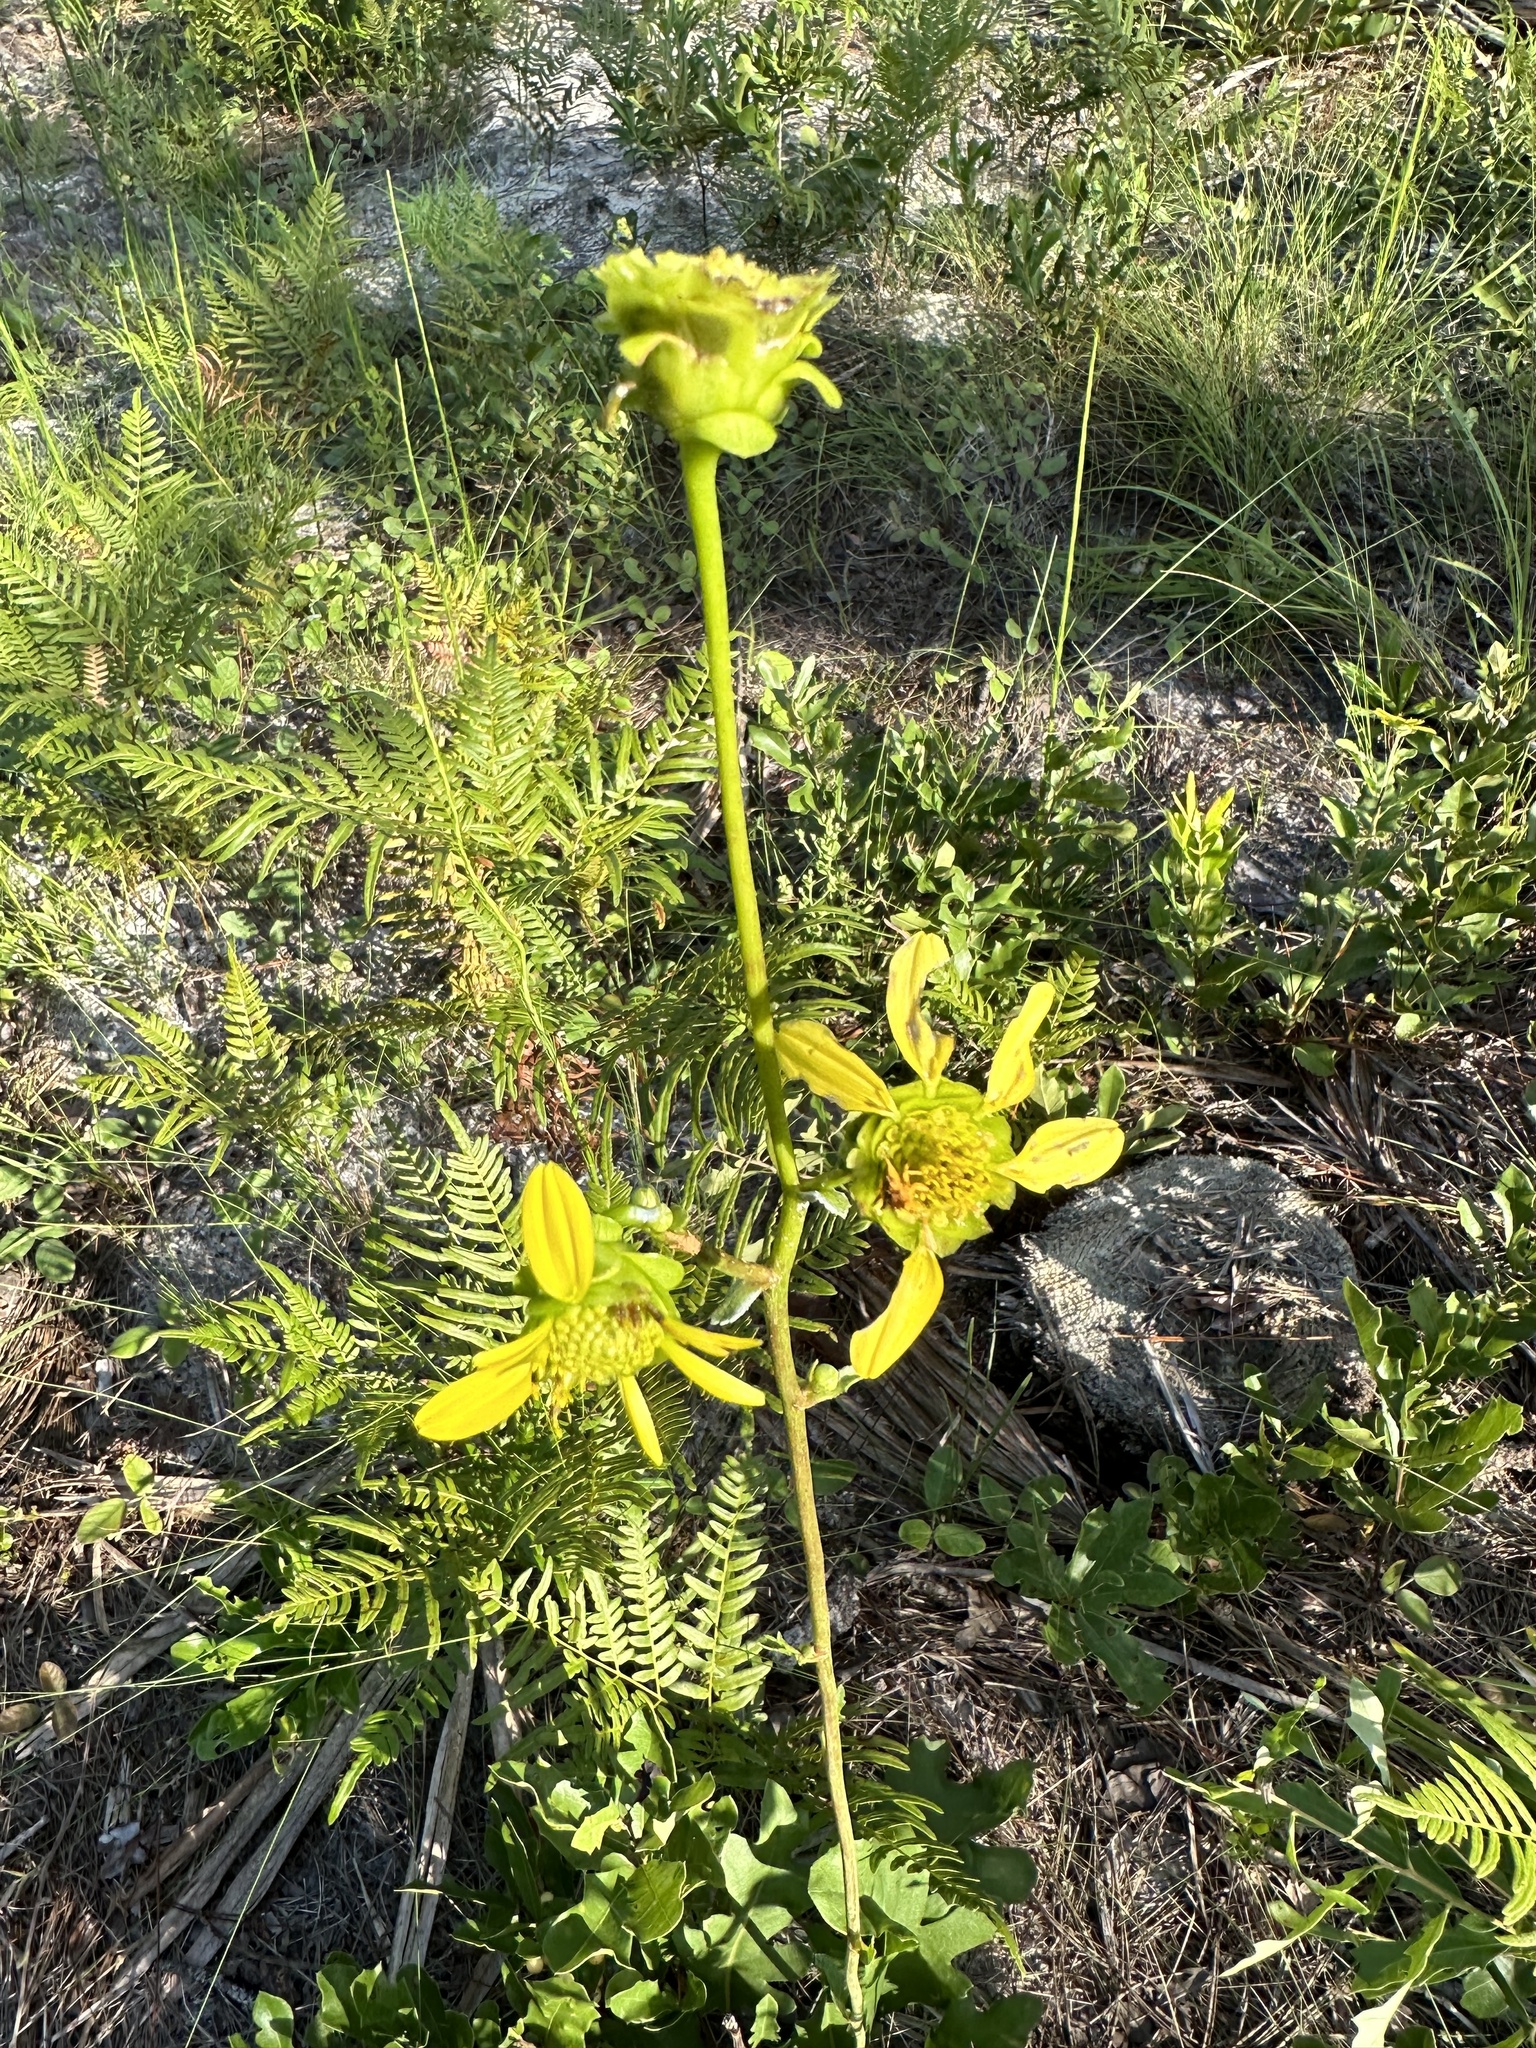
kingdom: Plantae
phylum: Tracheophyta
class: Magnoliopsida
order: Asterales
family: Asteraceae
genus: Silphium
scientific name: Silphium compositum
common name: Lesser basal-leaf rosinweed
